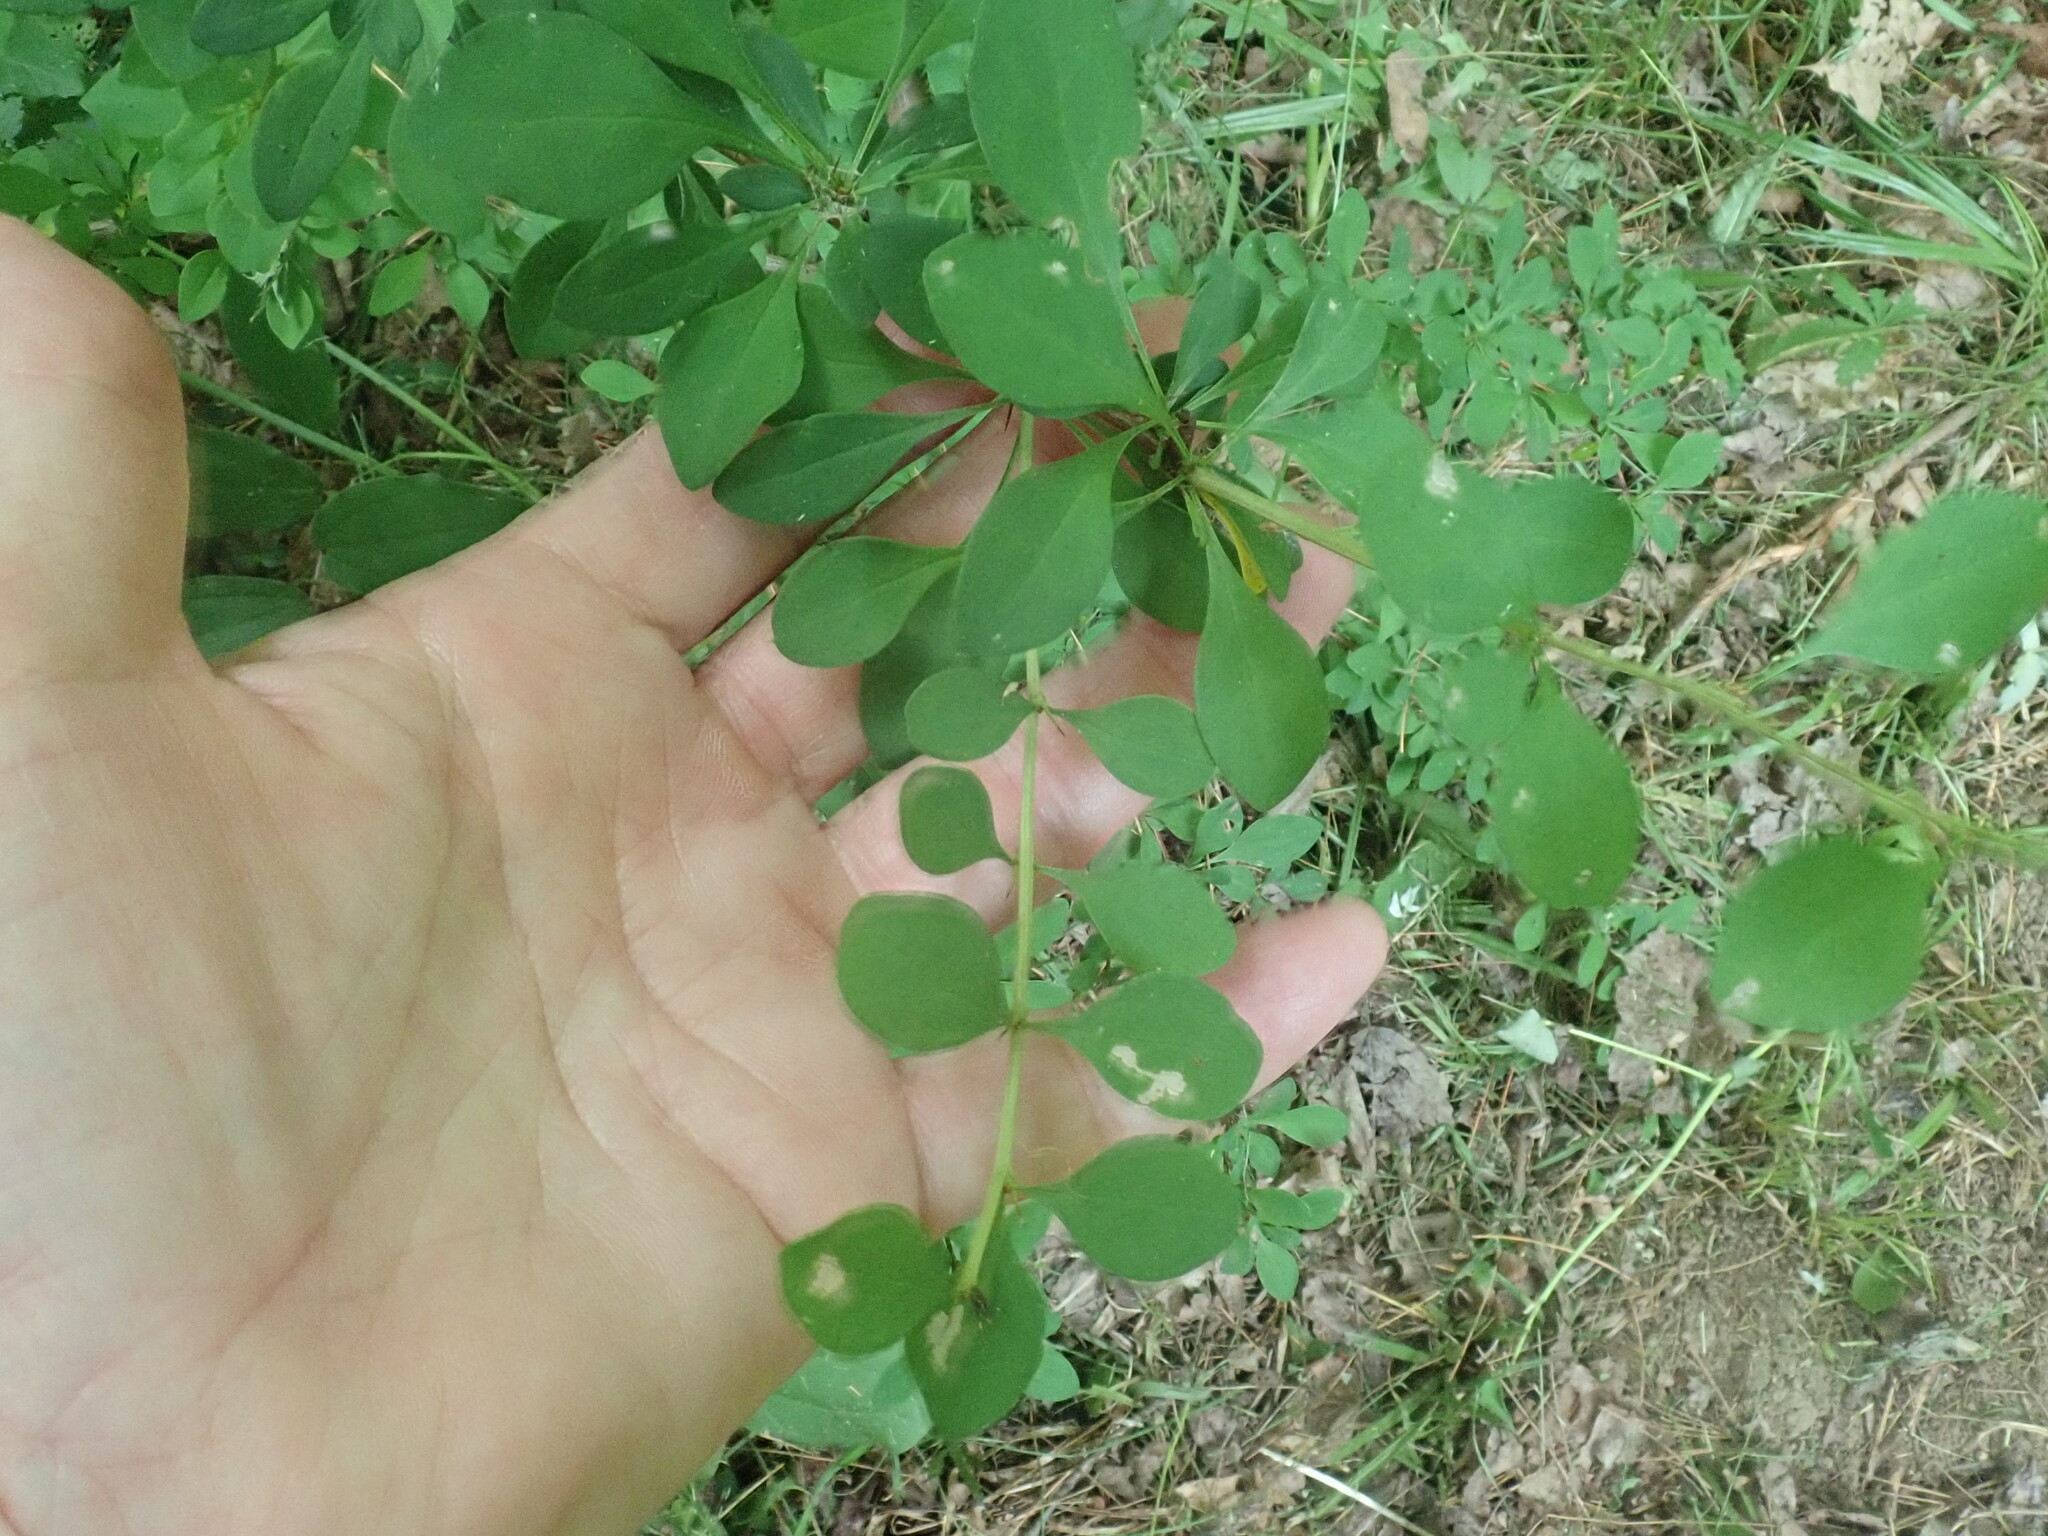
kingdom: Plantae
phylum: Tracheophyta
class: Magnoliopsida
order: Ranunculales
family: Berberidaceae
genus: Berberis
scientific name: Berberis thunbergii
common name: Japanese barberry
